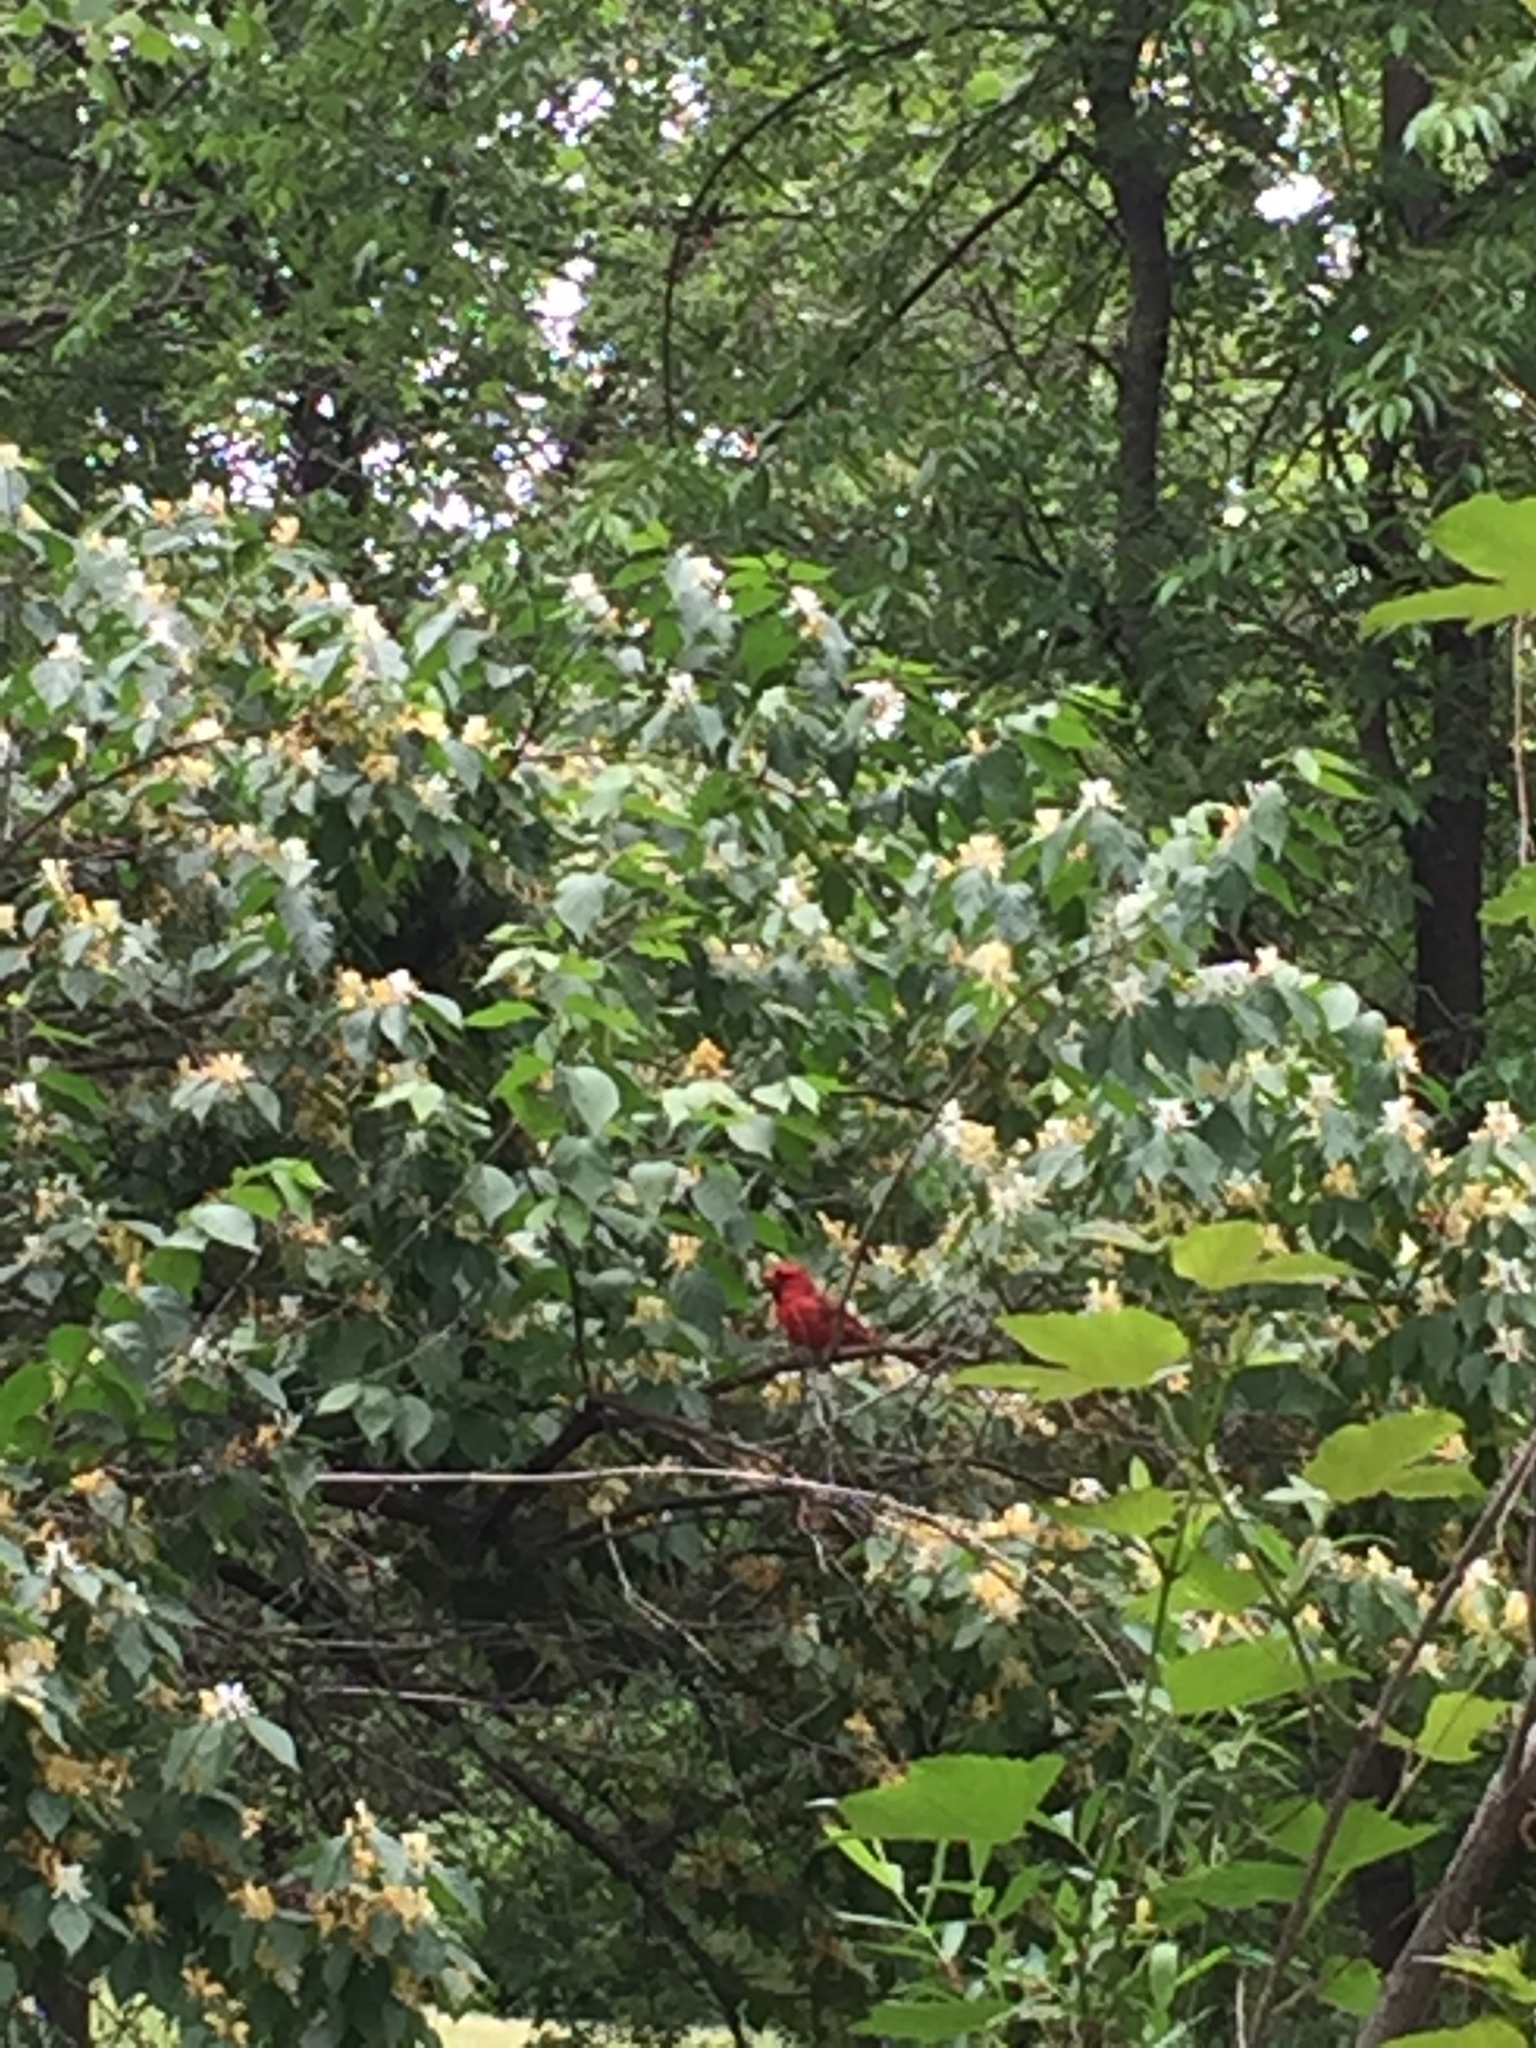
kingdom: Animalia
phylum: Chordata
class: Aves
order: Passeriformes
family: Cardinalidae
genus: Cardinalis
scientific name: Cardinalis cardinalis
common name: Northern cardinal
